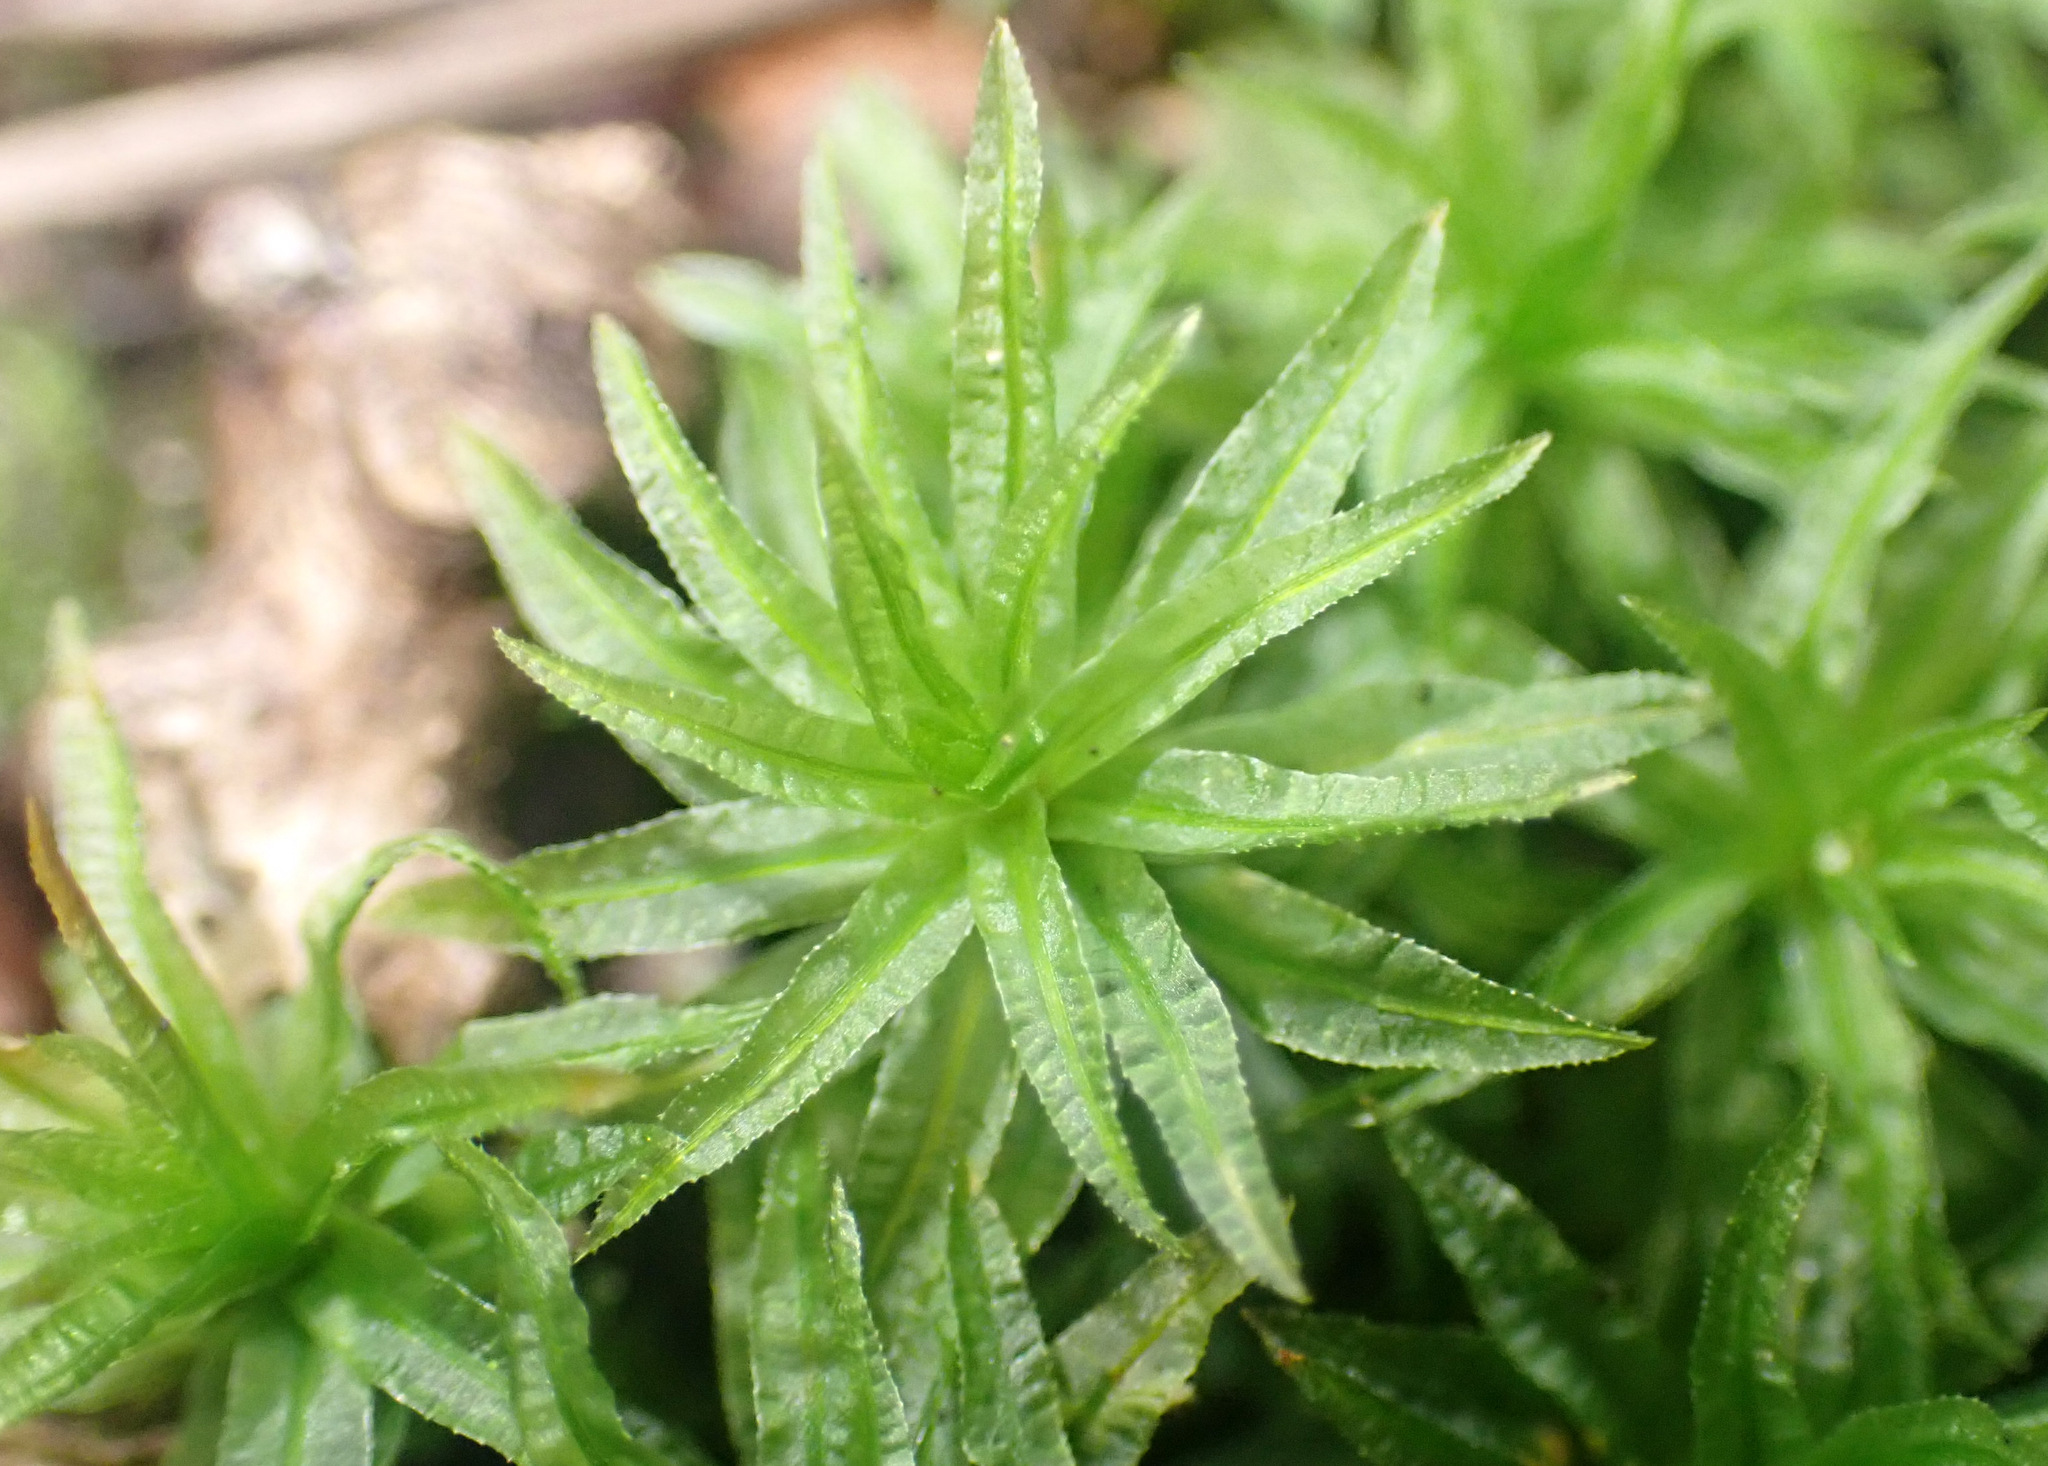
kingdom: Plantae
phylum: Bryophyta
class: Polytrichopsida
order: Polytrichales
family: Polytrichaceae
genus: Atrichum
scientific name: Atrichum undulatum
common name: Common smoothcap
